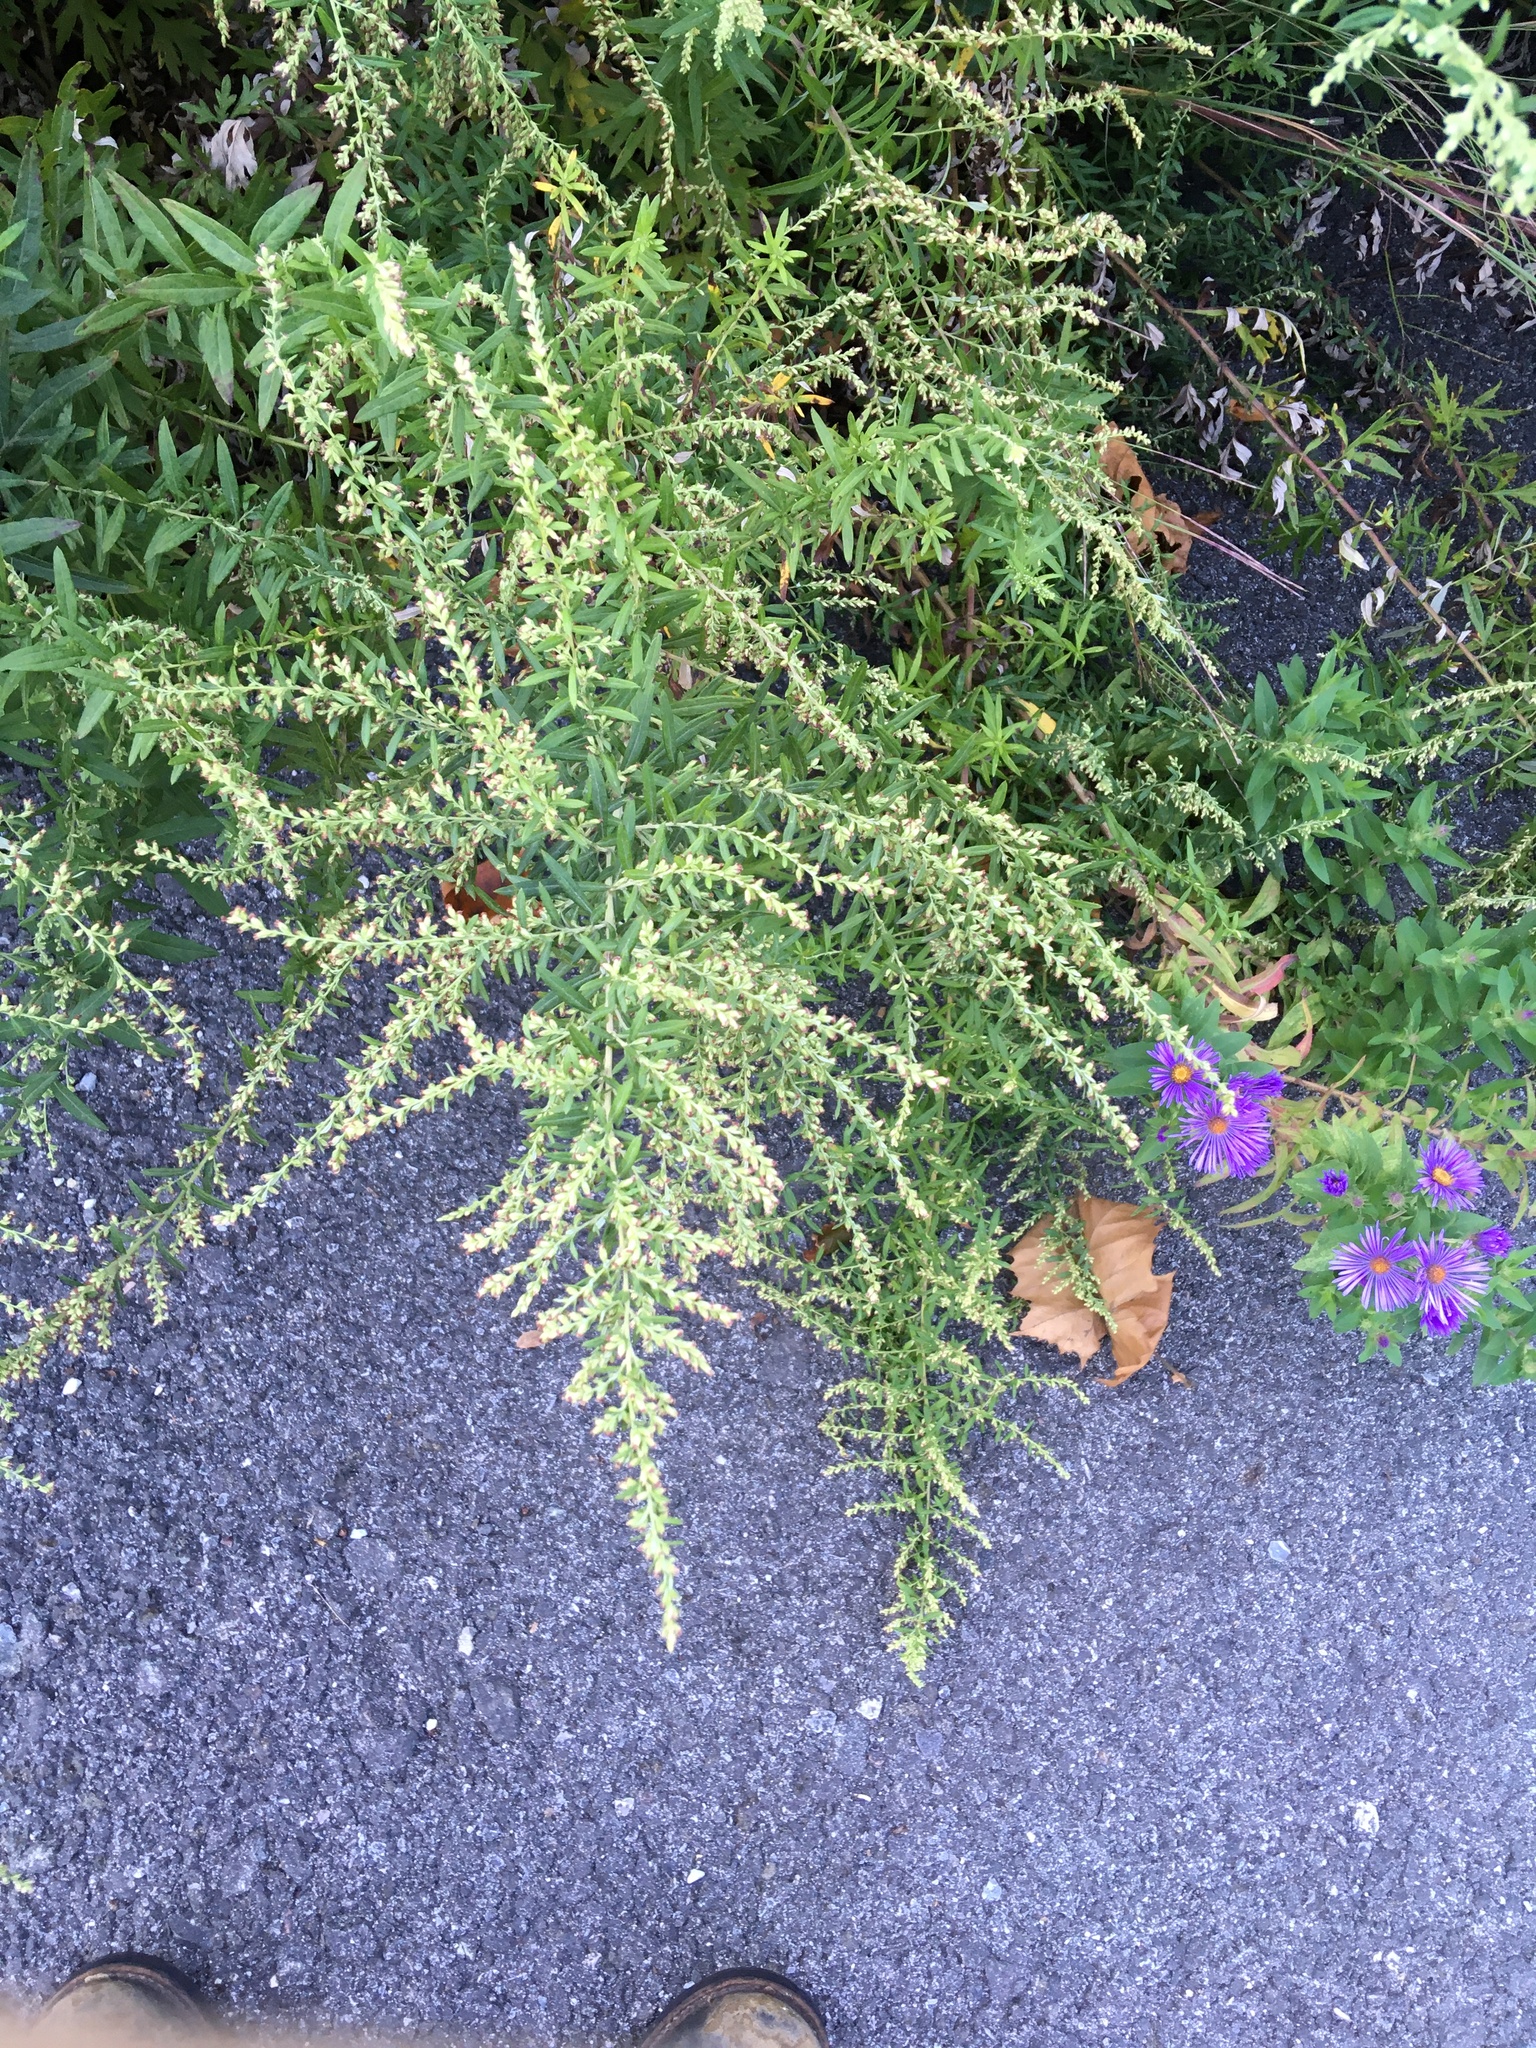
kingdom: Plantae
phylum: Tracheophyta
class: Magnoliopsida
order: Asterales
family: Asteraceae
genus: Artemisia
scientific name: Artemisia vulgaris
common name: Mugwort
